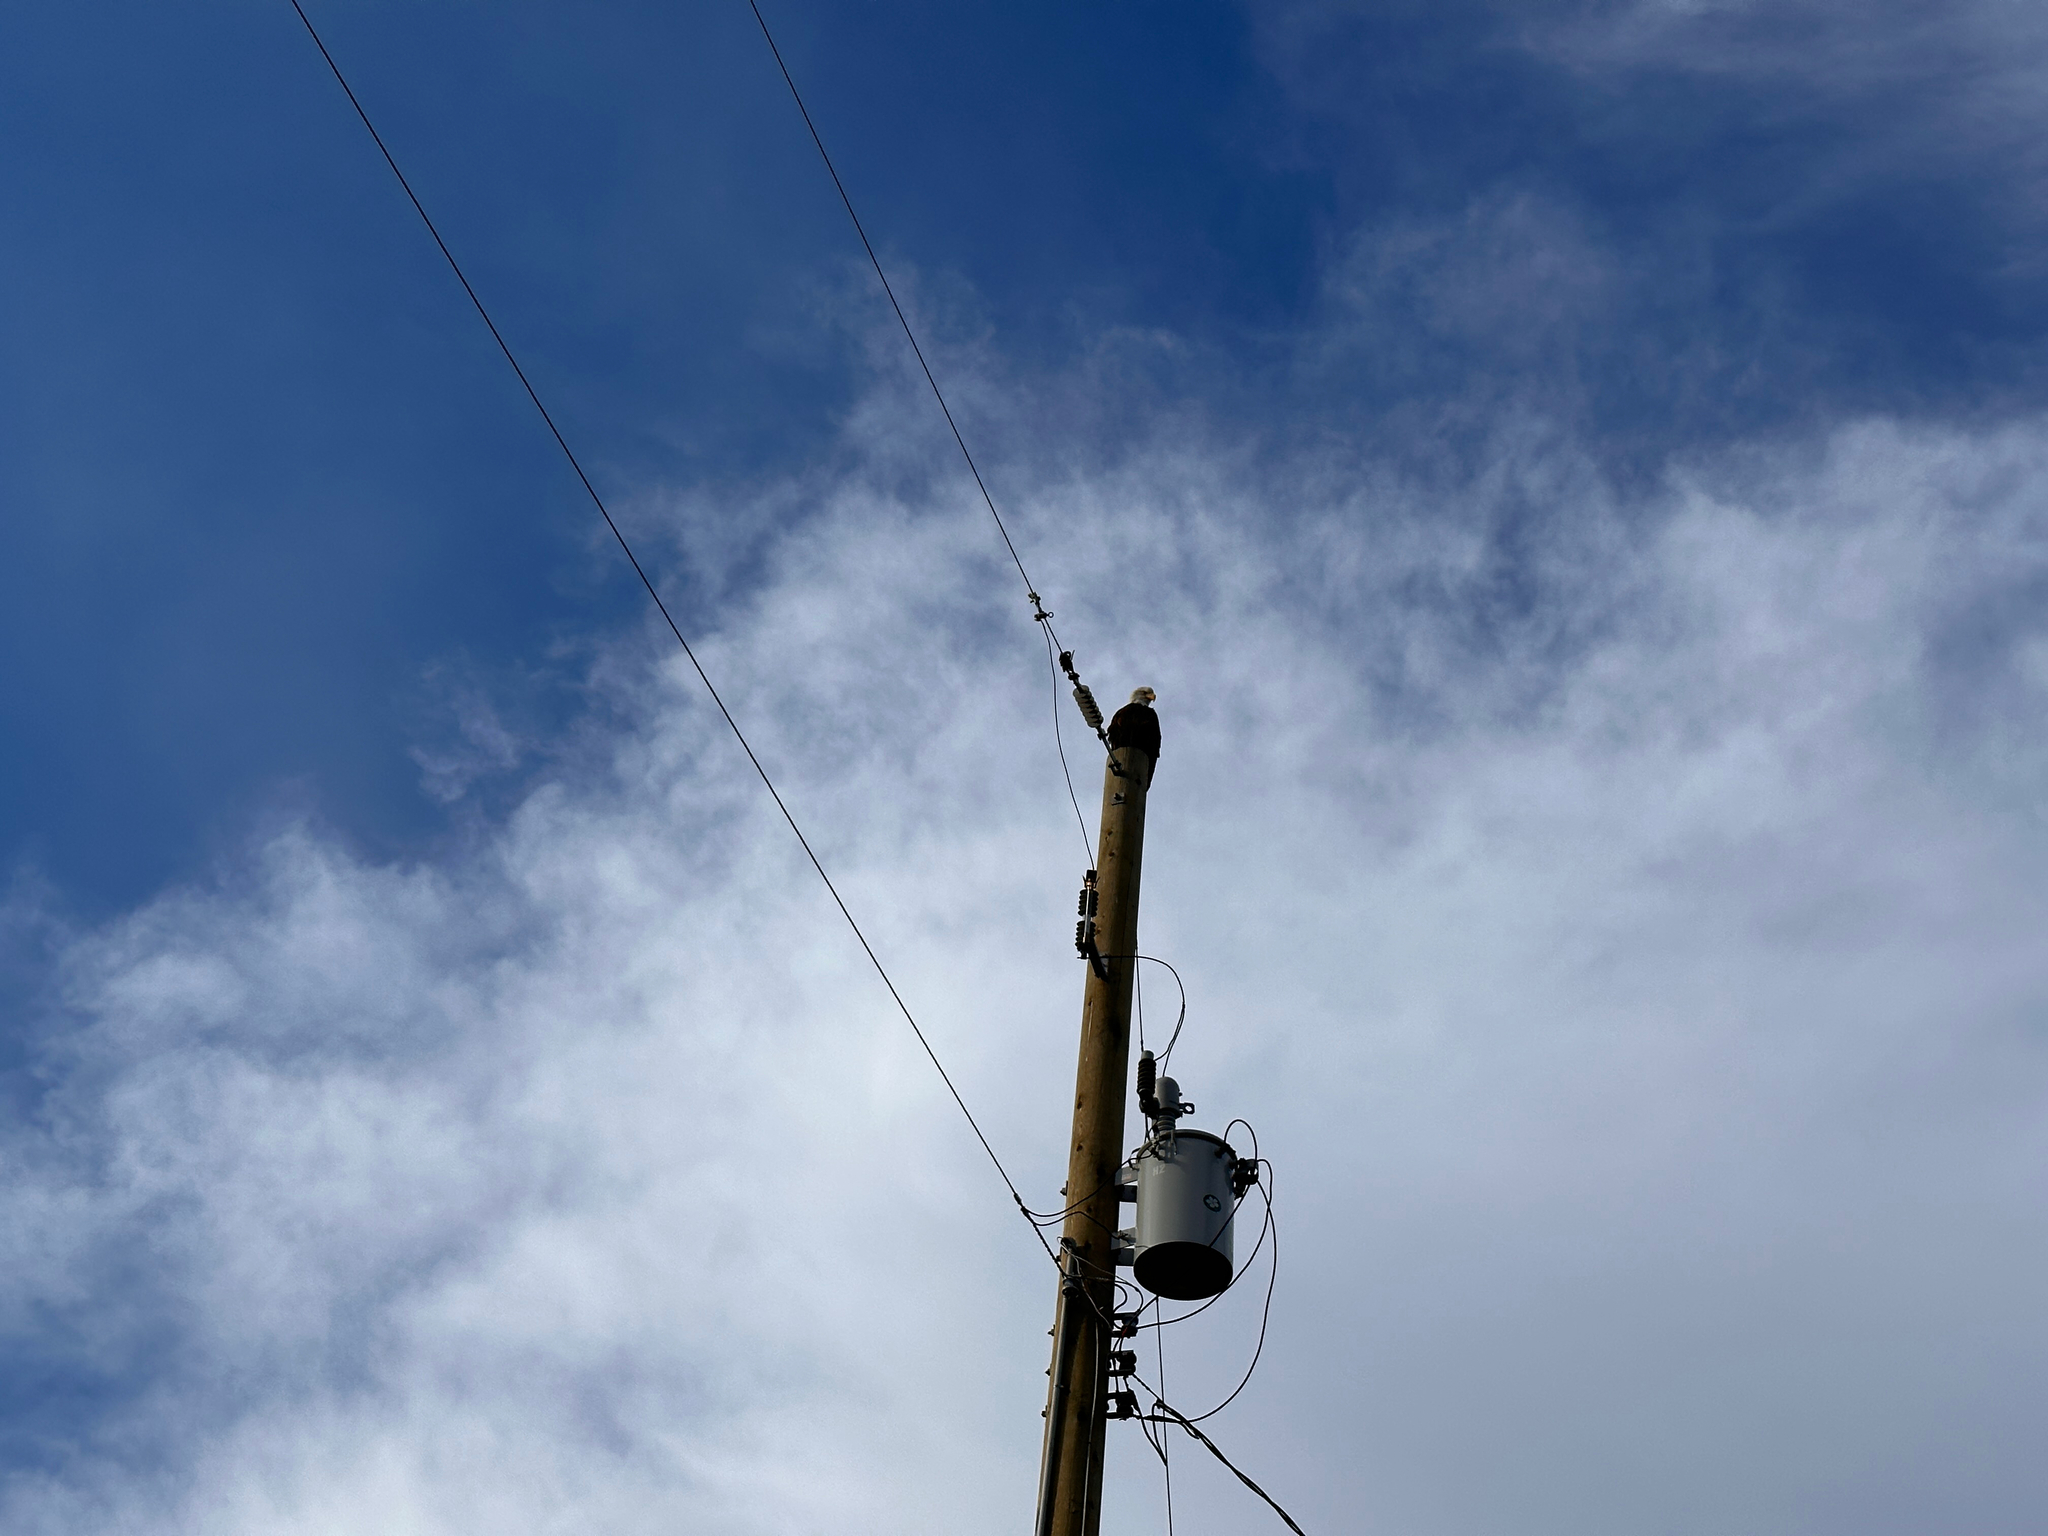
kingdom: Animalia
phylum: Chordata
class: Aves
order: Accipitriformes
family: Accipitridae
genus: Haliaeetus
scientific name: Haliaeetus leucocephalus
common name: Bald eagle
